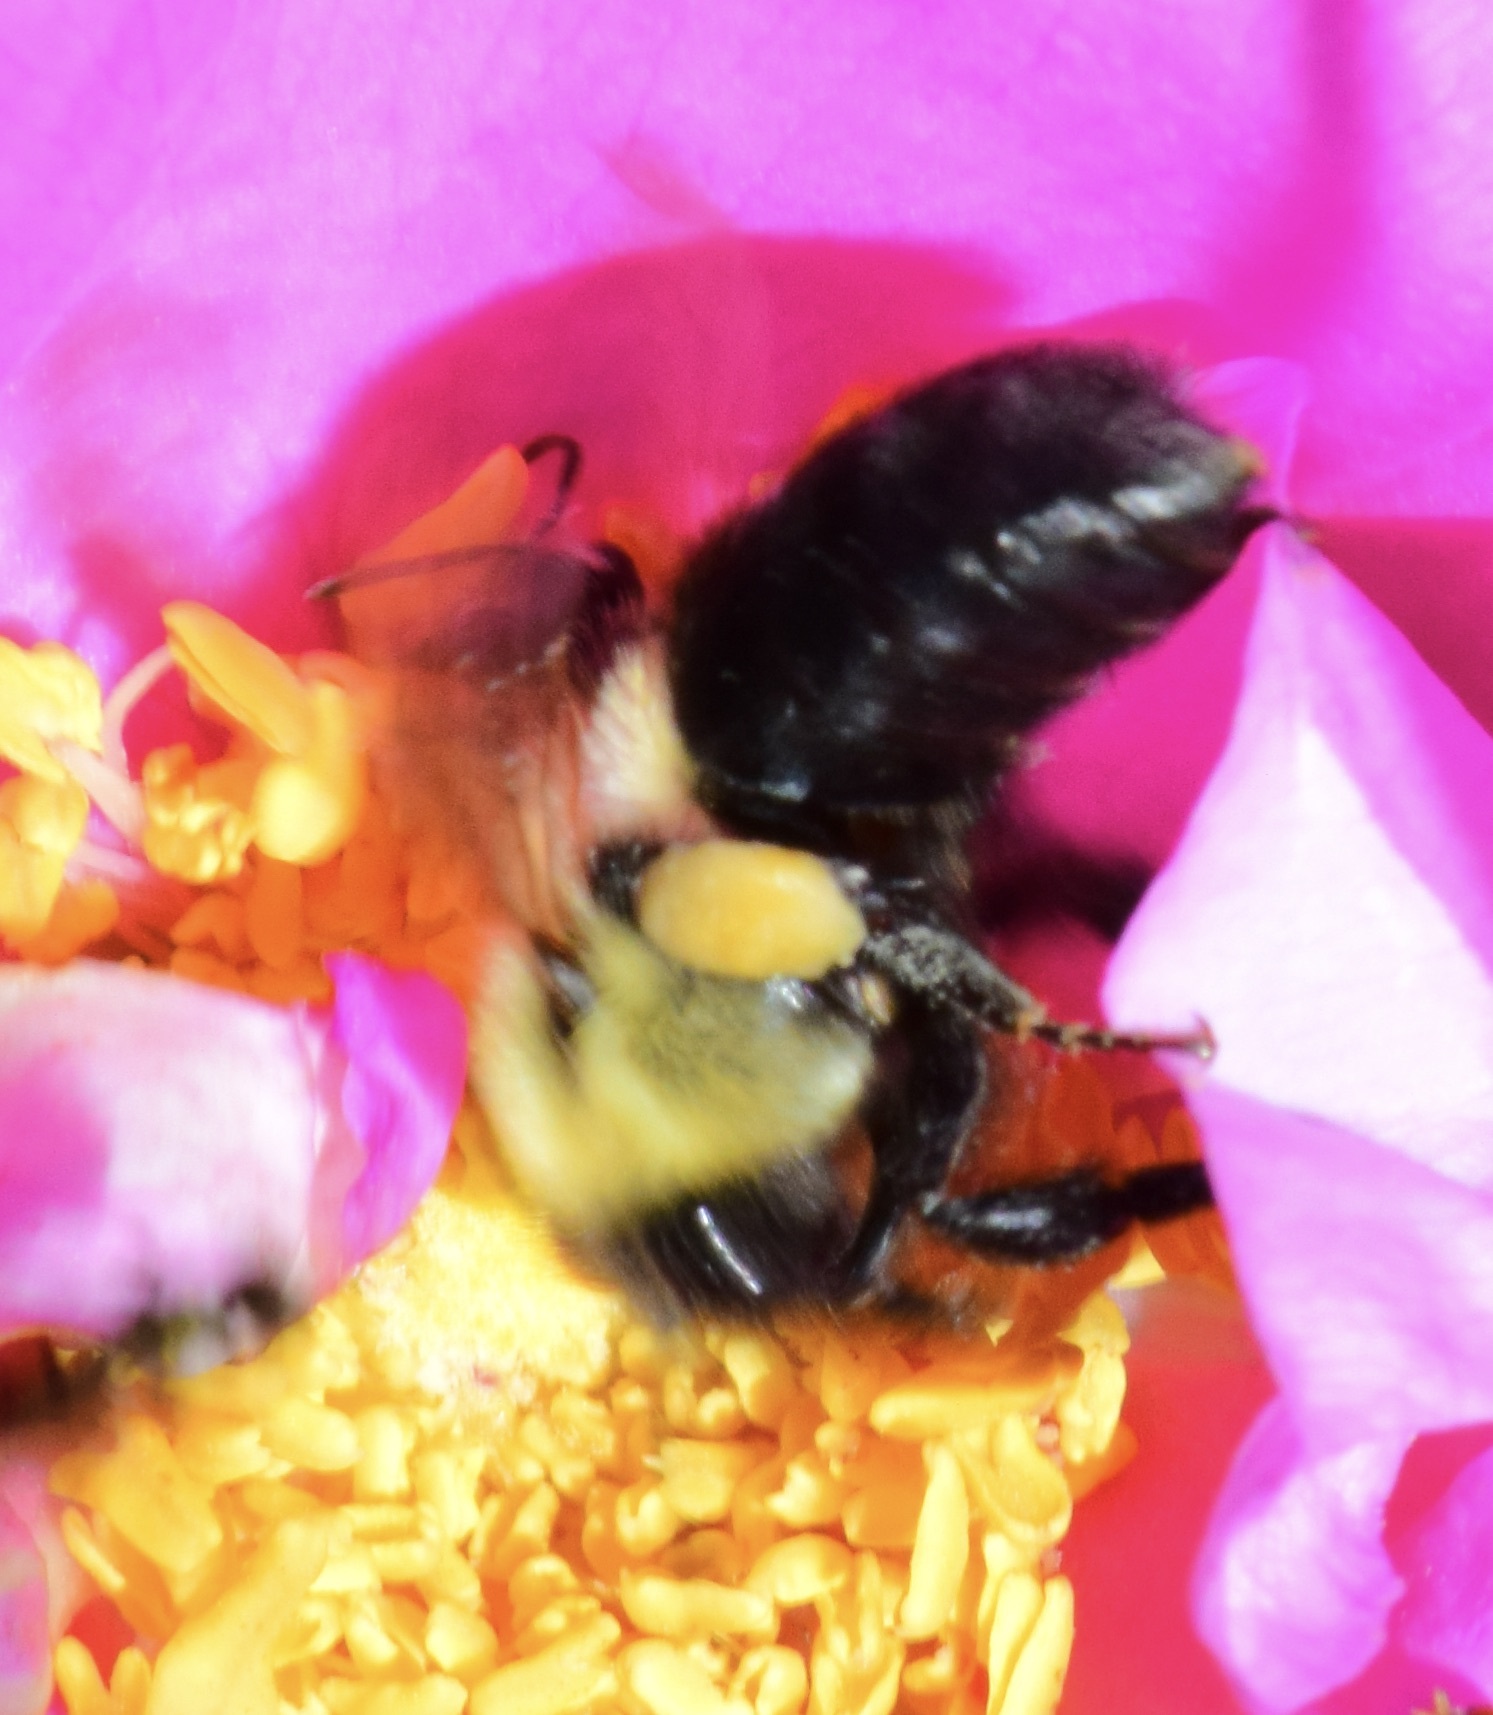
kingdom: Animalia
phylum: Arthropoda
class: Insecta
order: Hymenoptera
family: Apidae
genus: Bombus
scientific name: Bombus impatiens
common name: Common eastern bumble bee
